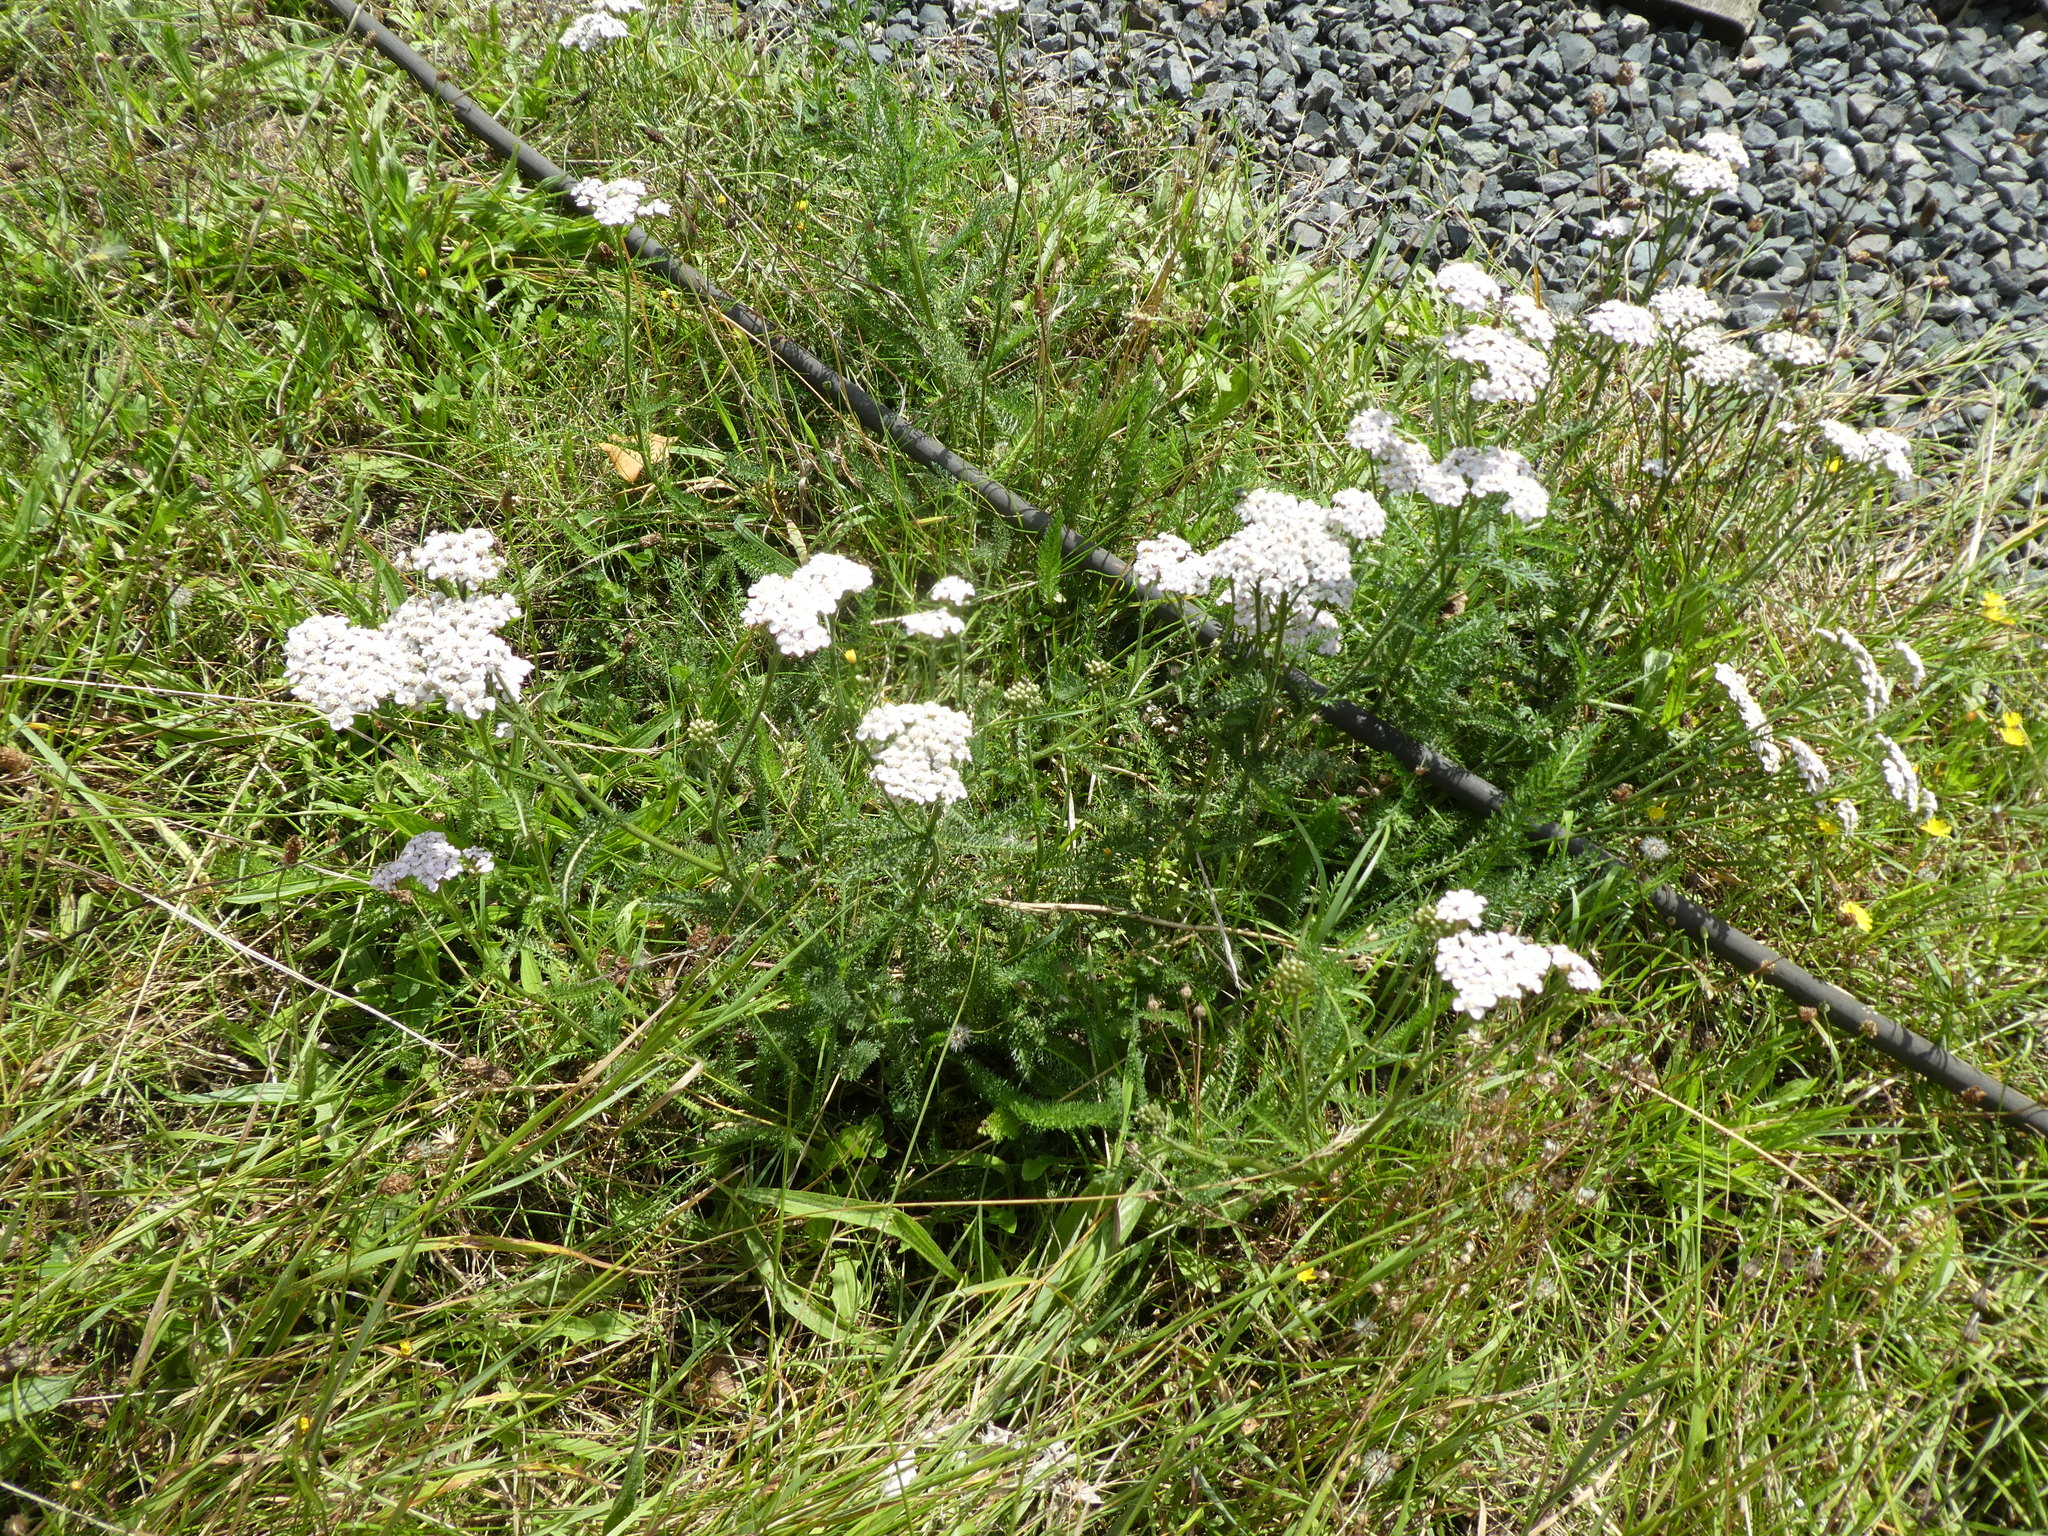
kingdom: Plantae
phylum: Tracheophyta
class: Magnoliopsida
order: Asterales
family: Asteraceae
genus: Achillea
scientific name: Achillea millefolium
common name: Yarrow
